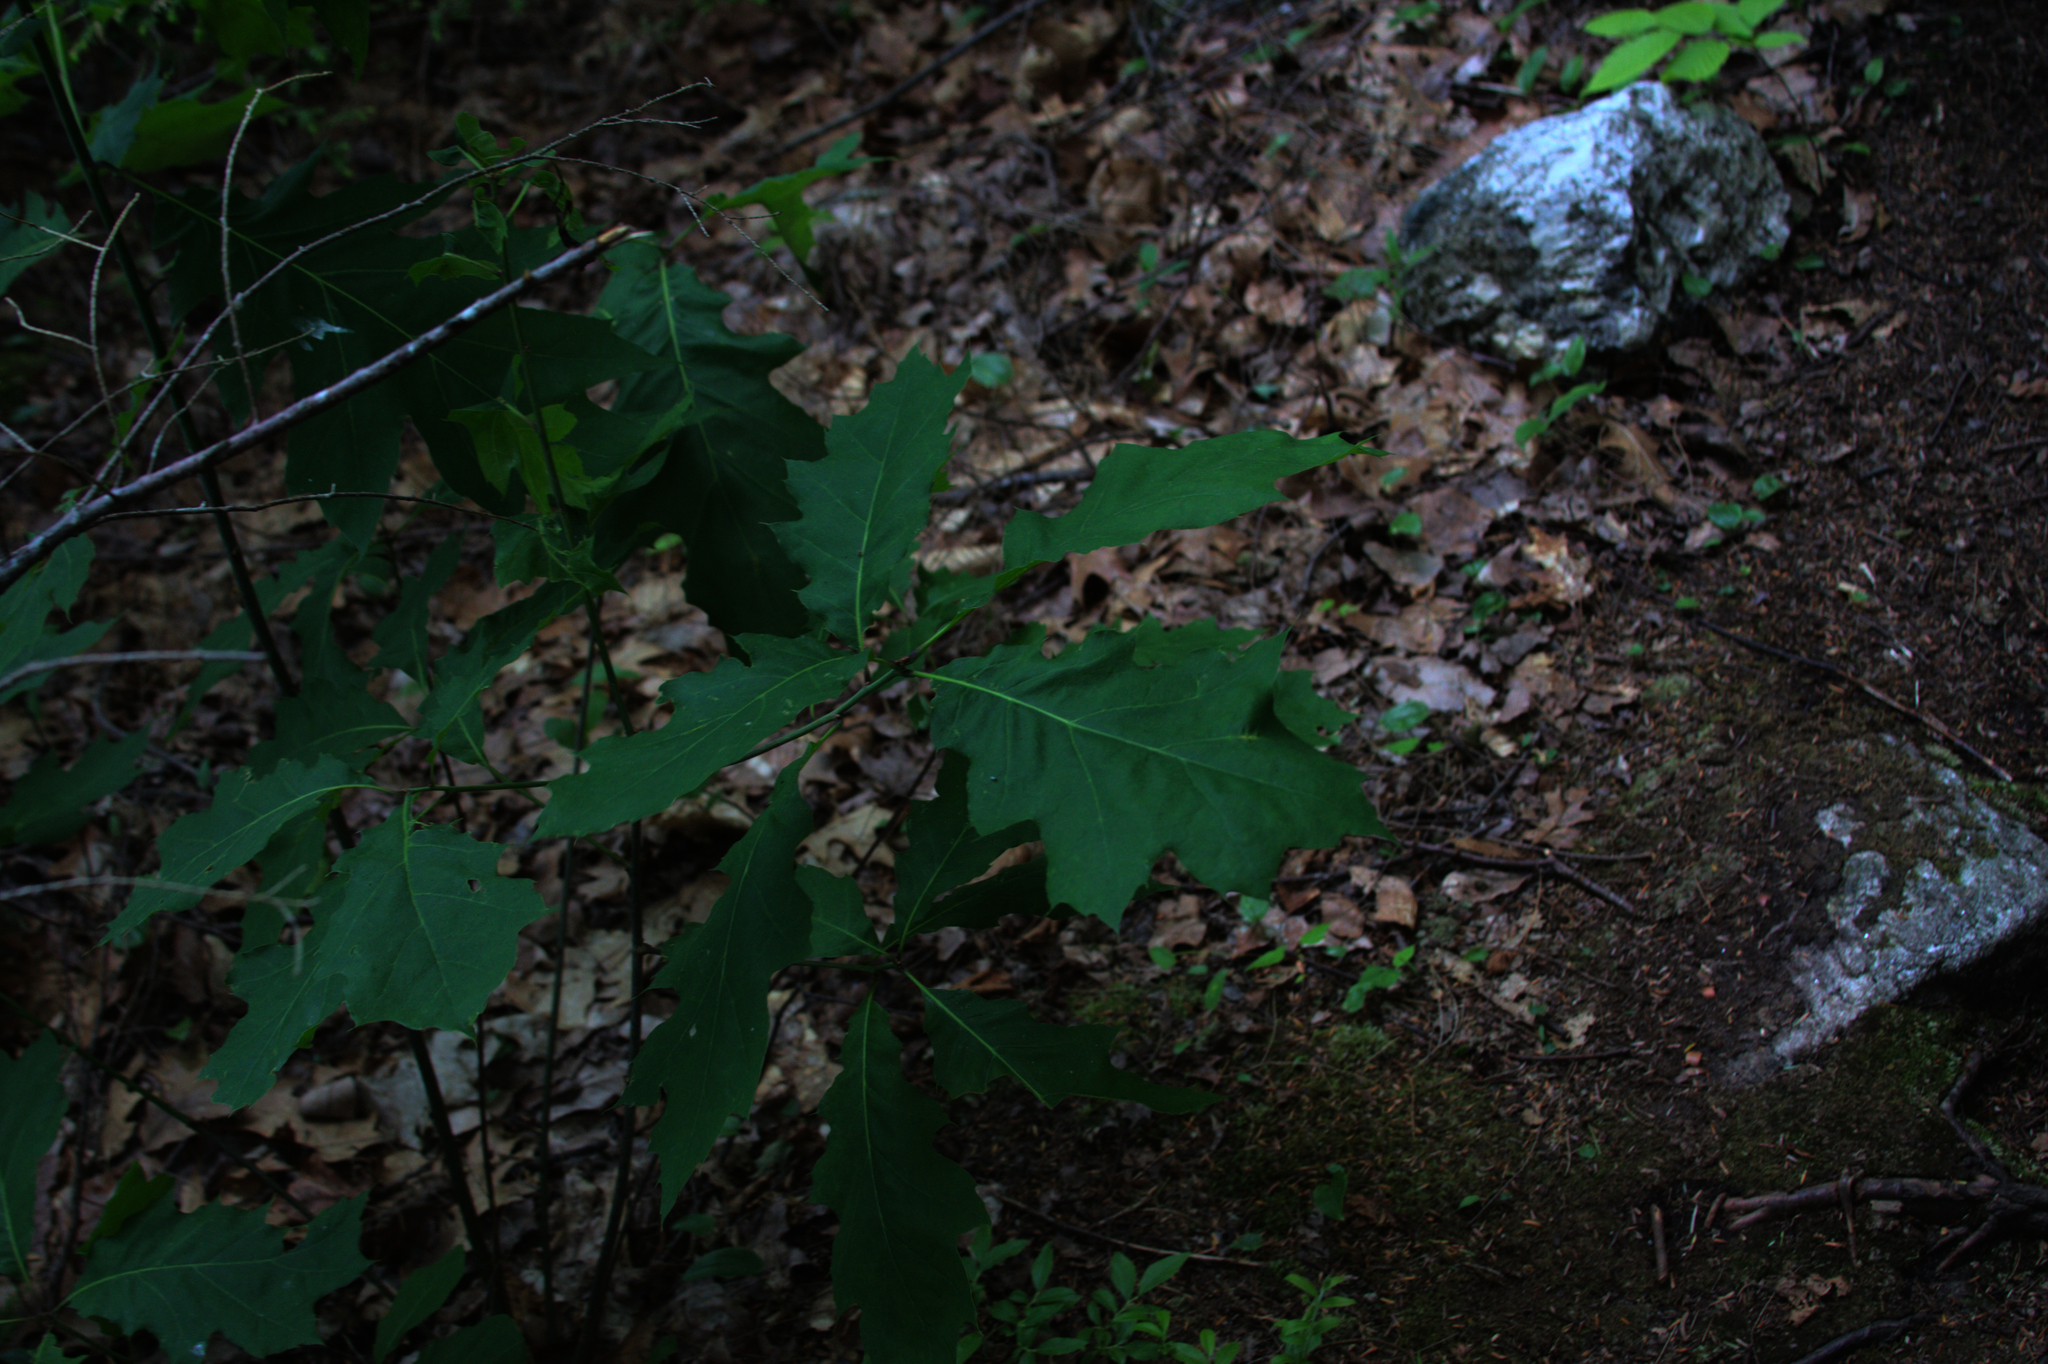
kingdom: Plantae
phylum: Tracheophyta
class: Magnoliopsida
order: Fagales
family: Fagaceae
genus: Quercus
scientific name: Quercus rubra
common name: Red oak
